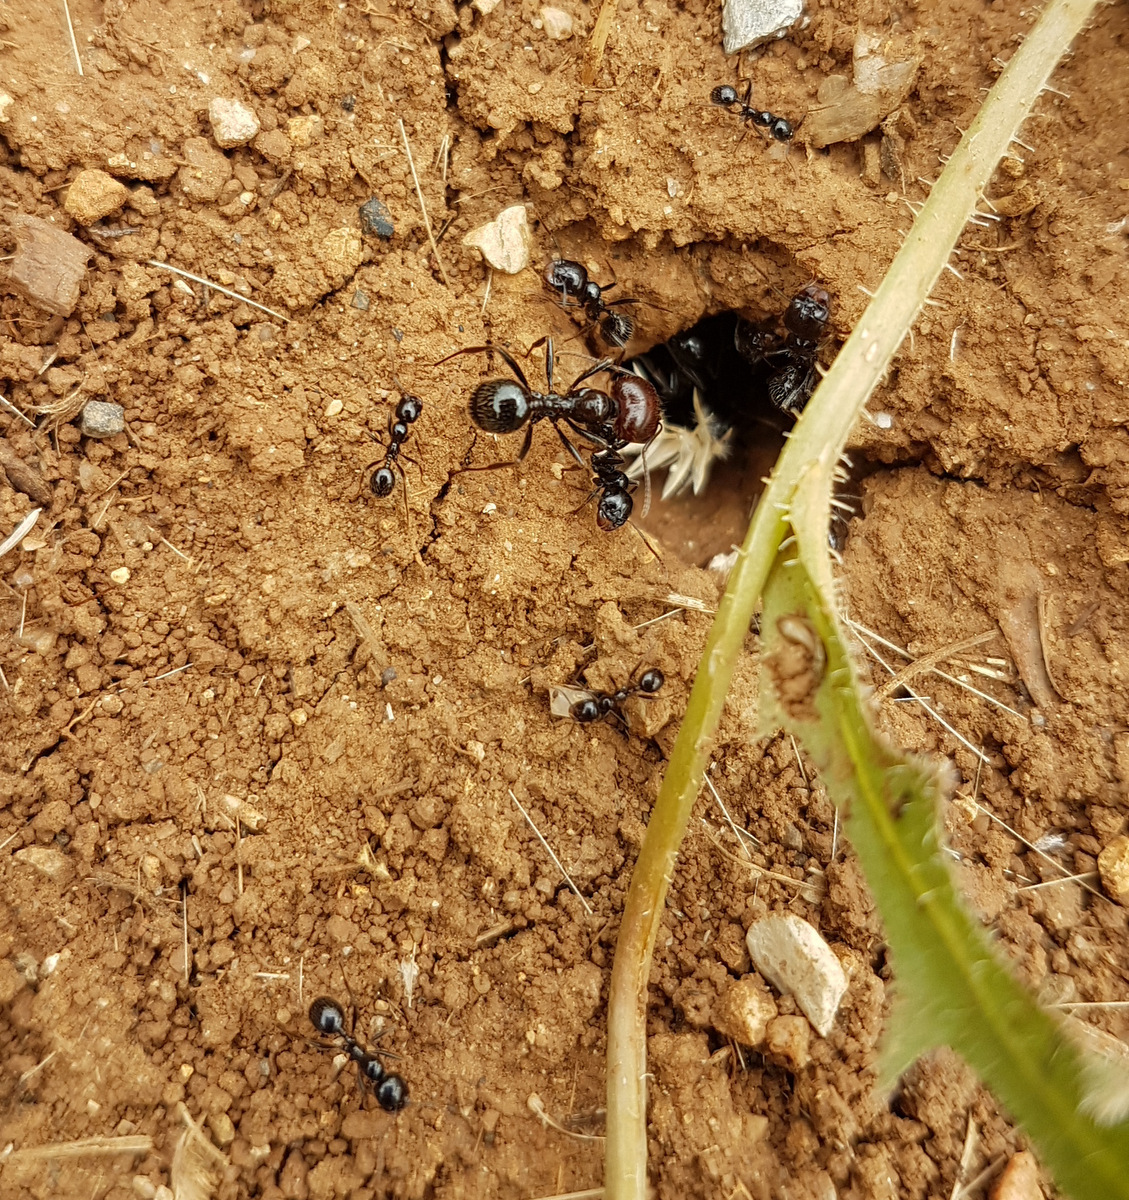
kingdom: Animalia
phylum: Arthropoda
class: Insecta
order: Hymenoptera
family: Formicidae
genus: Messor
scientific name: Messor barbarus
